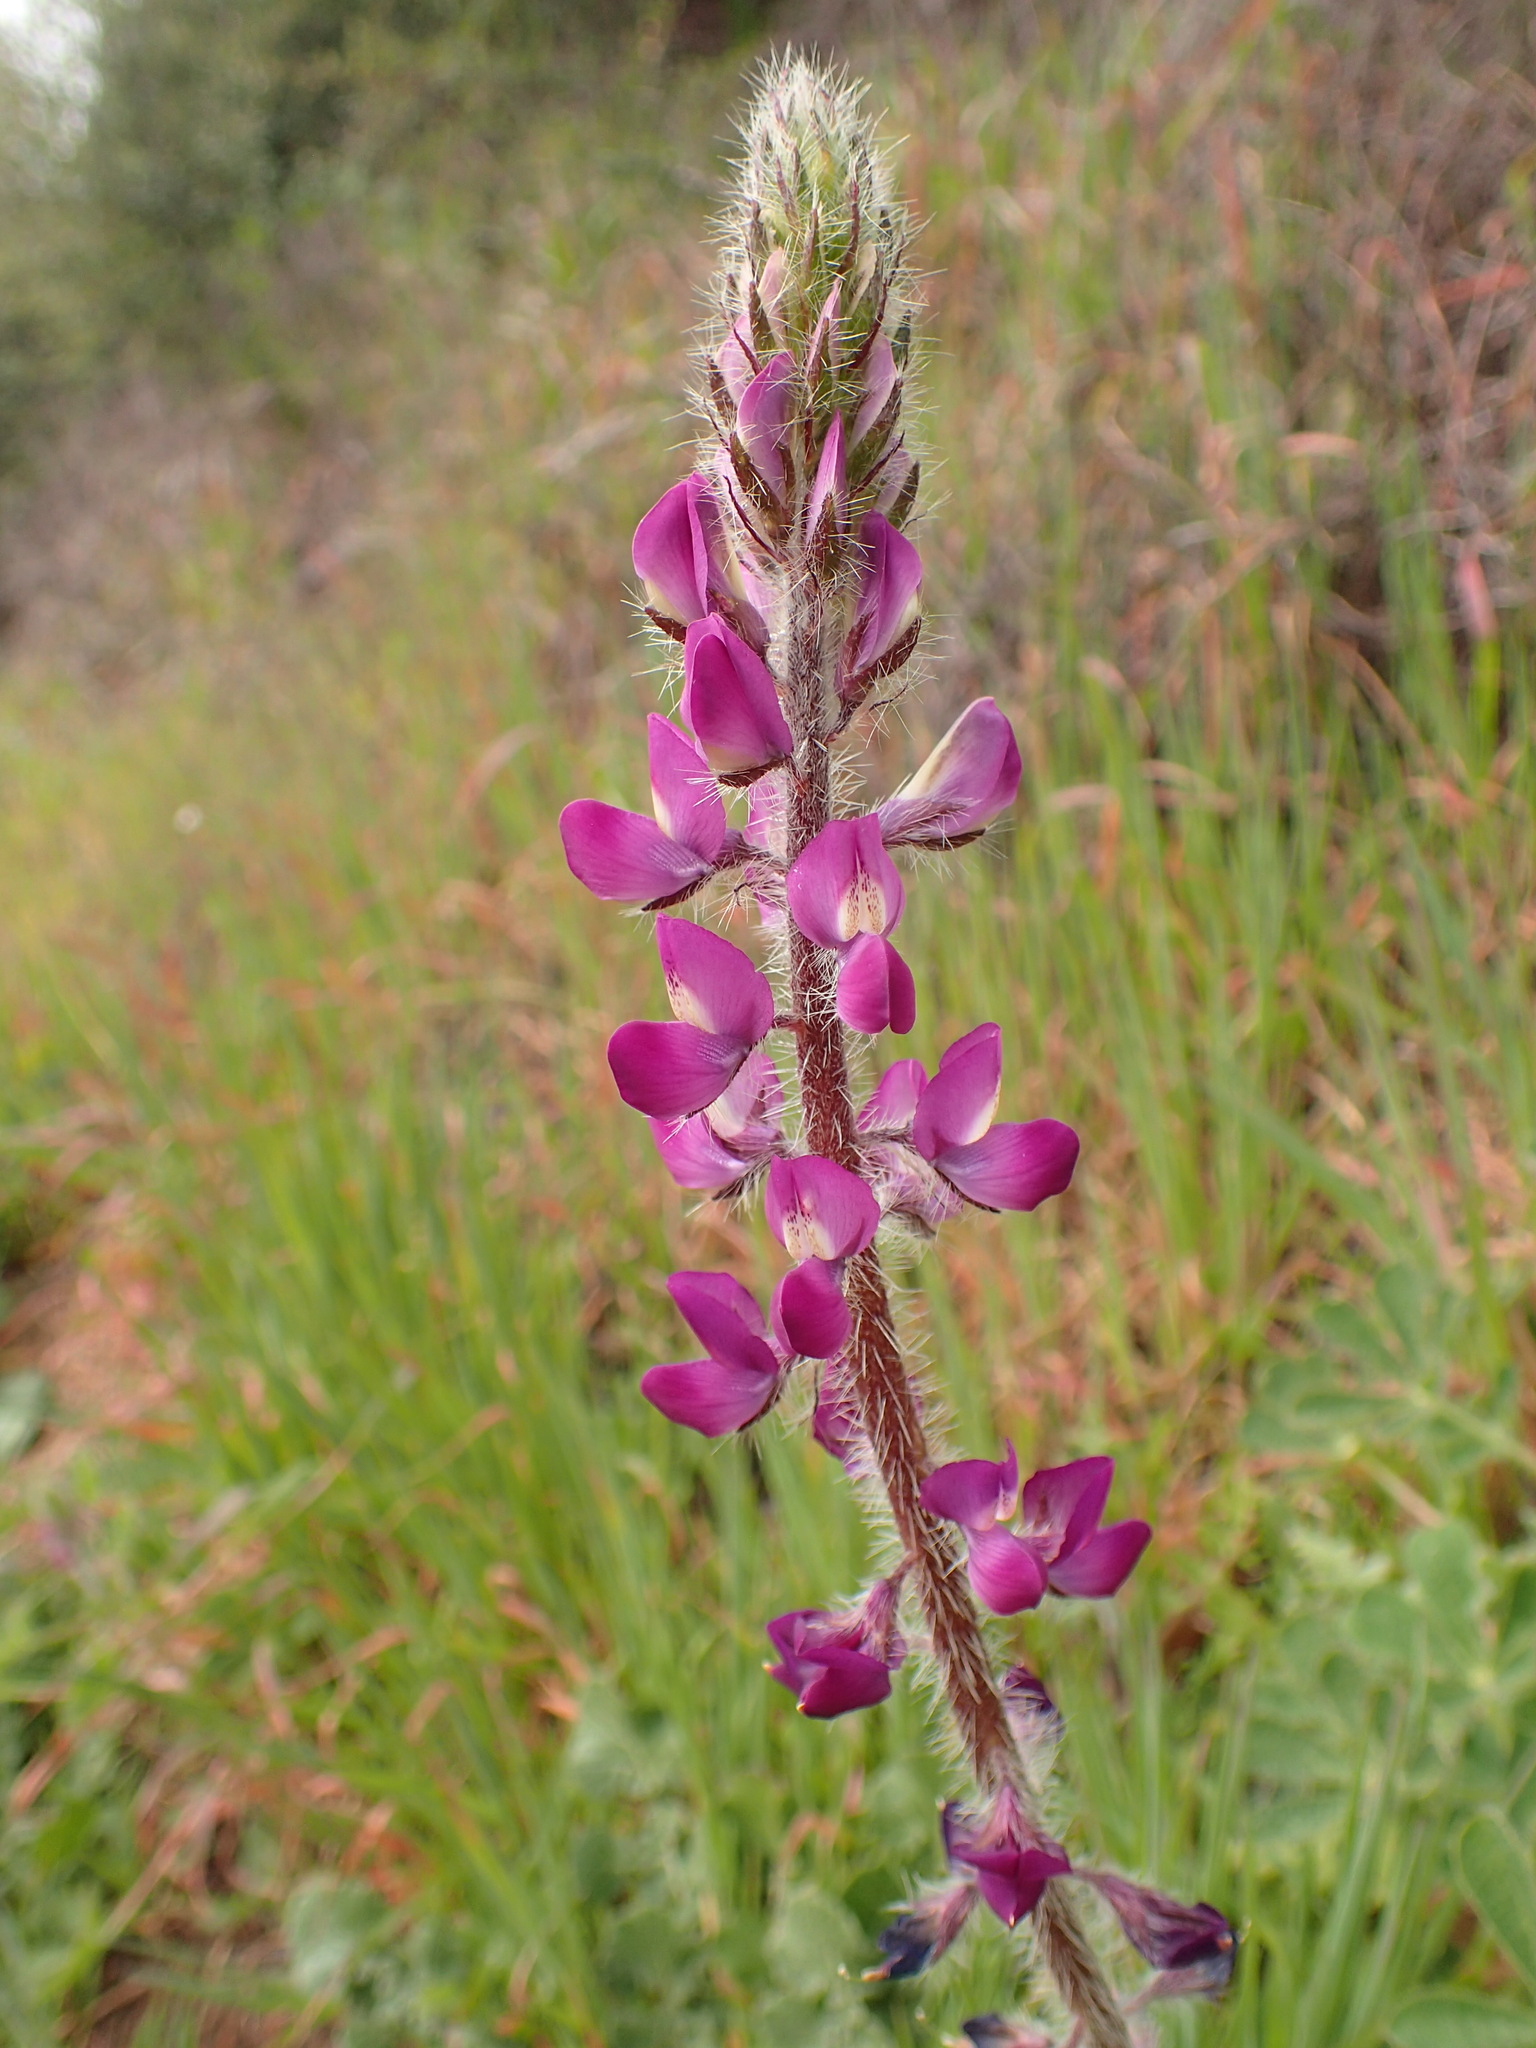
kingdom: Plantae
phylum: Tracheophyta
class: Magnoliopsida
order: Fabales
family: Fabaceae
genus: Lupinus
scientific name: Lupinus hirsutissimus
